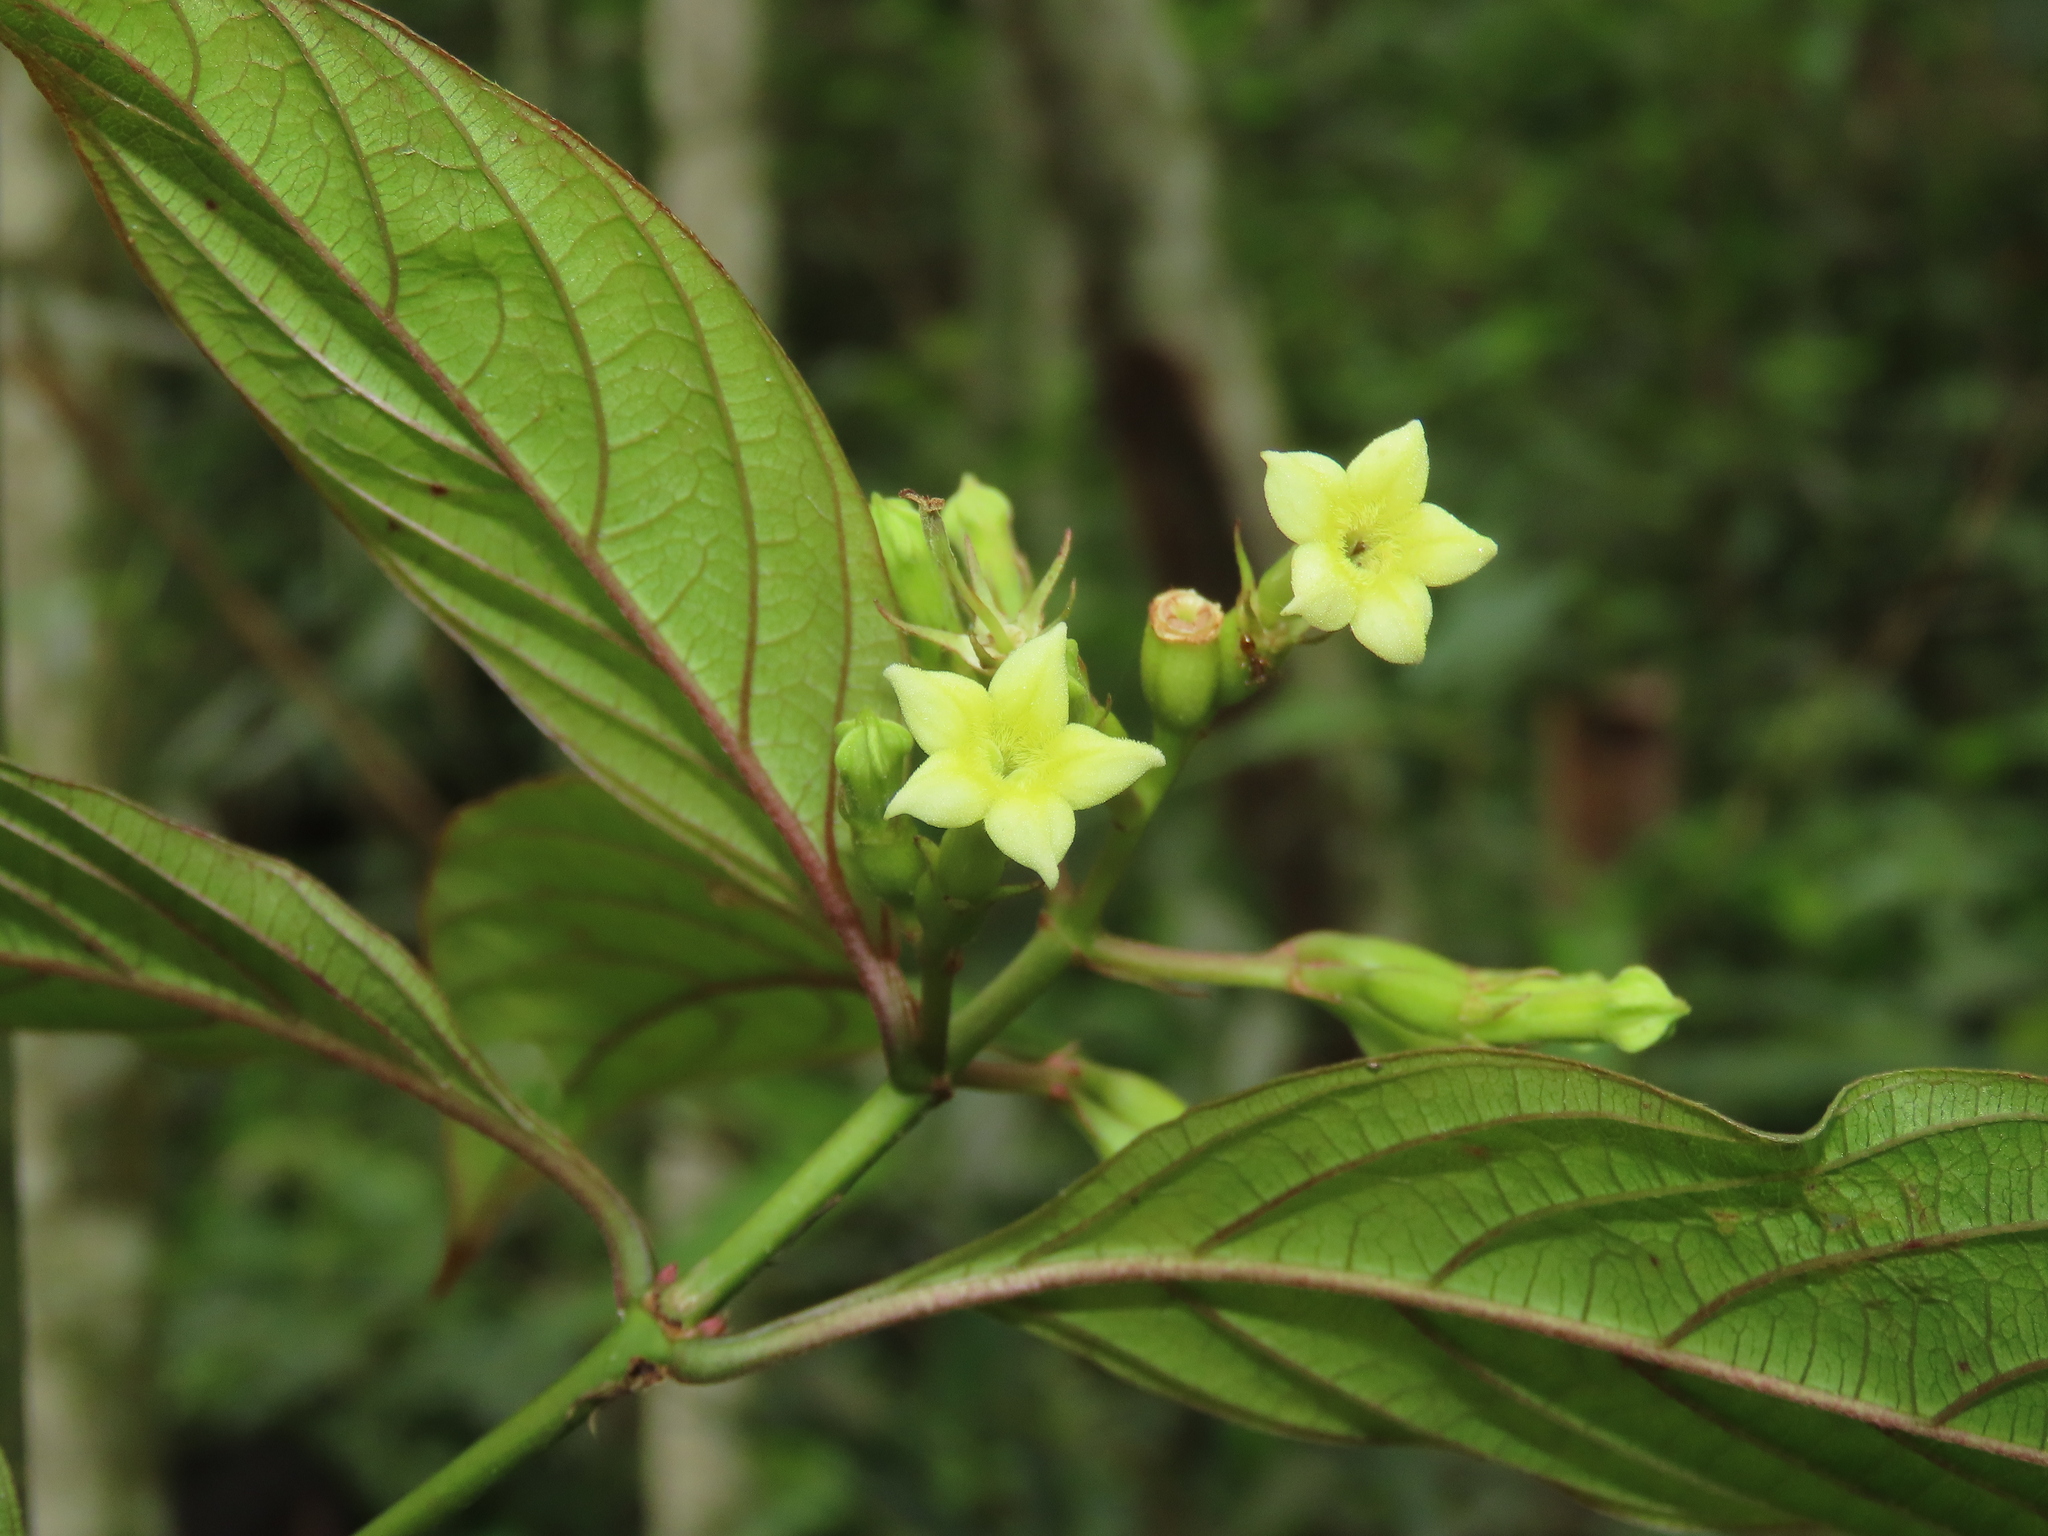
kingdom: Plantae
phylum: Tracheophyta
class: Magnoliopsida
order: Gentianales
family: Rubiaceae
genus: Mussaenda
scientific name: Mussaenda parviflora
